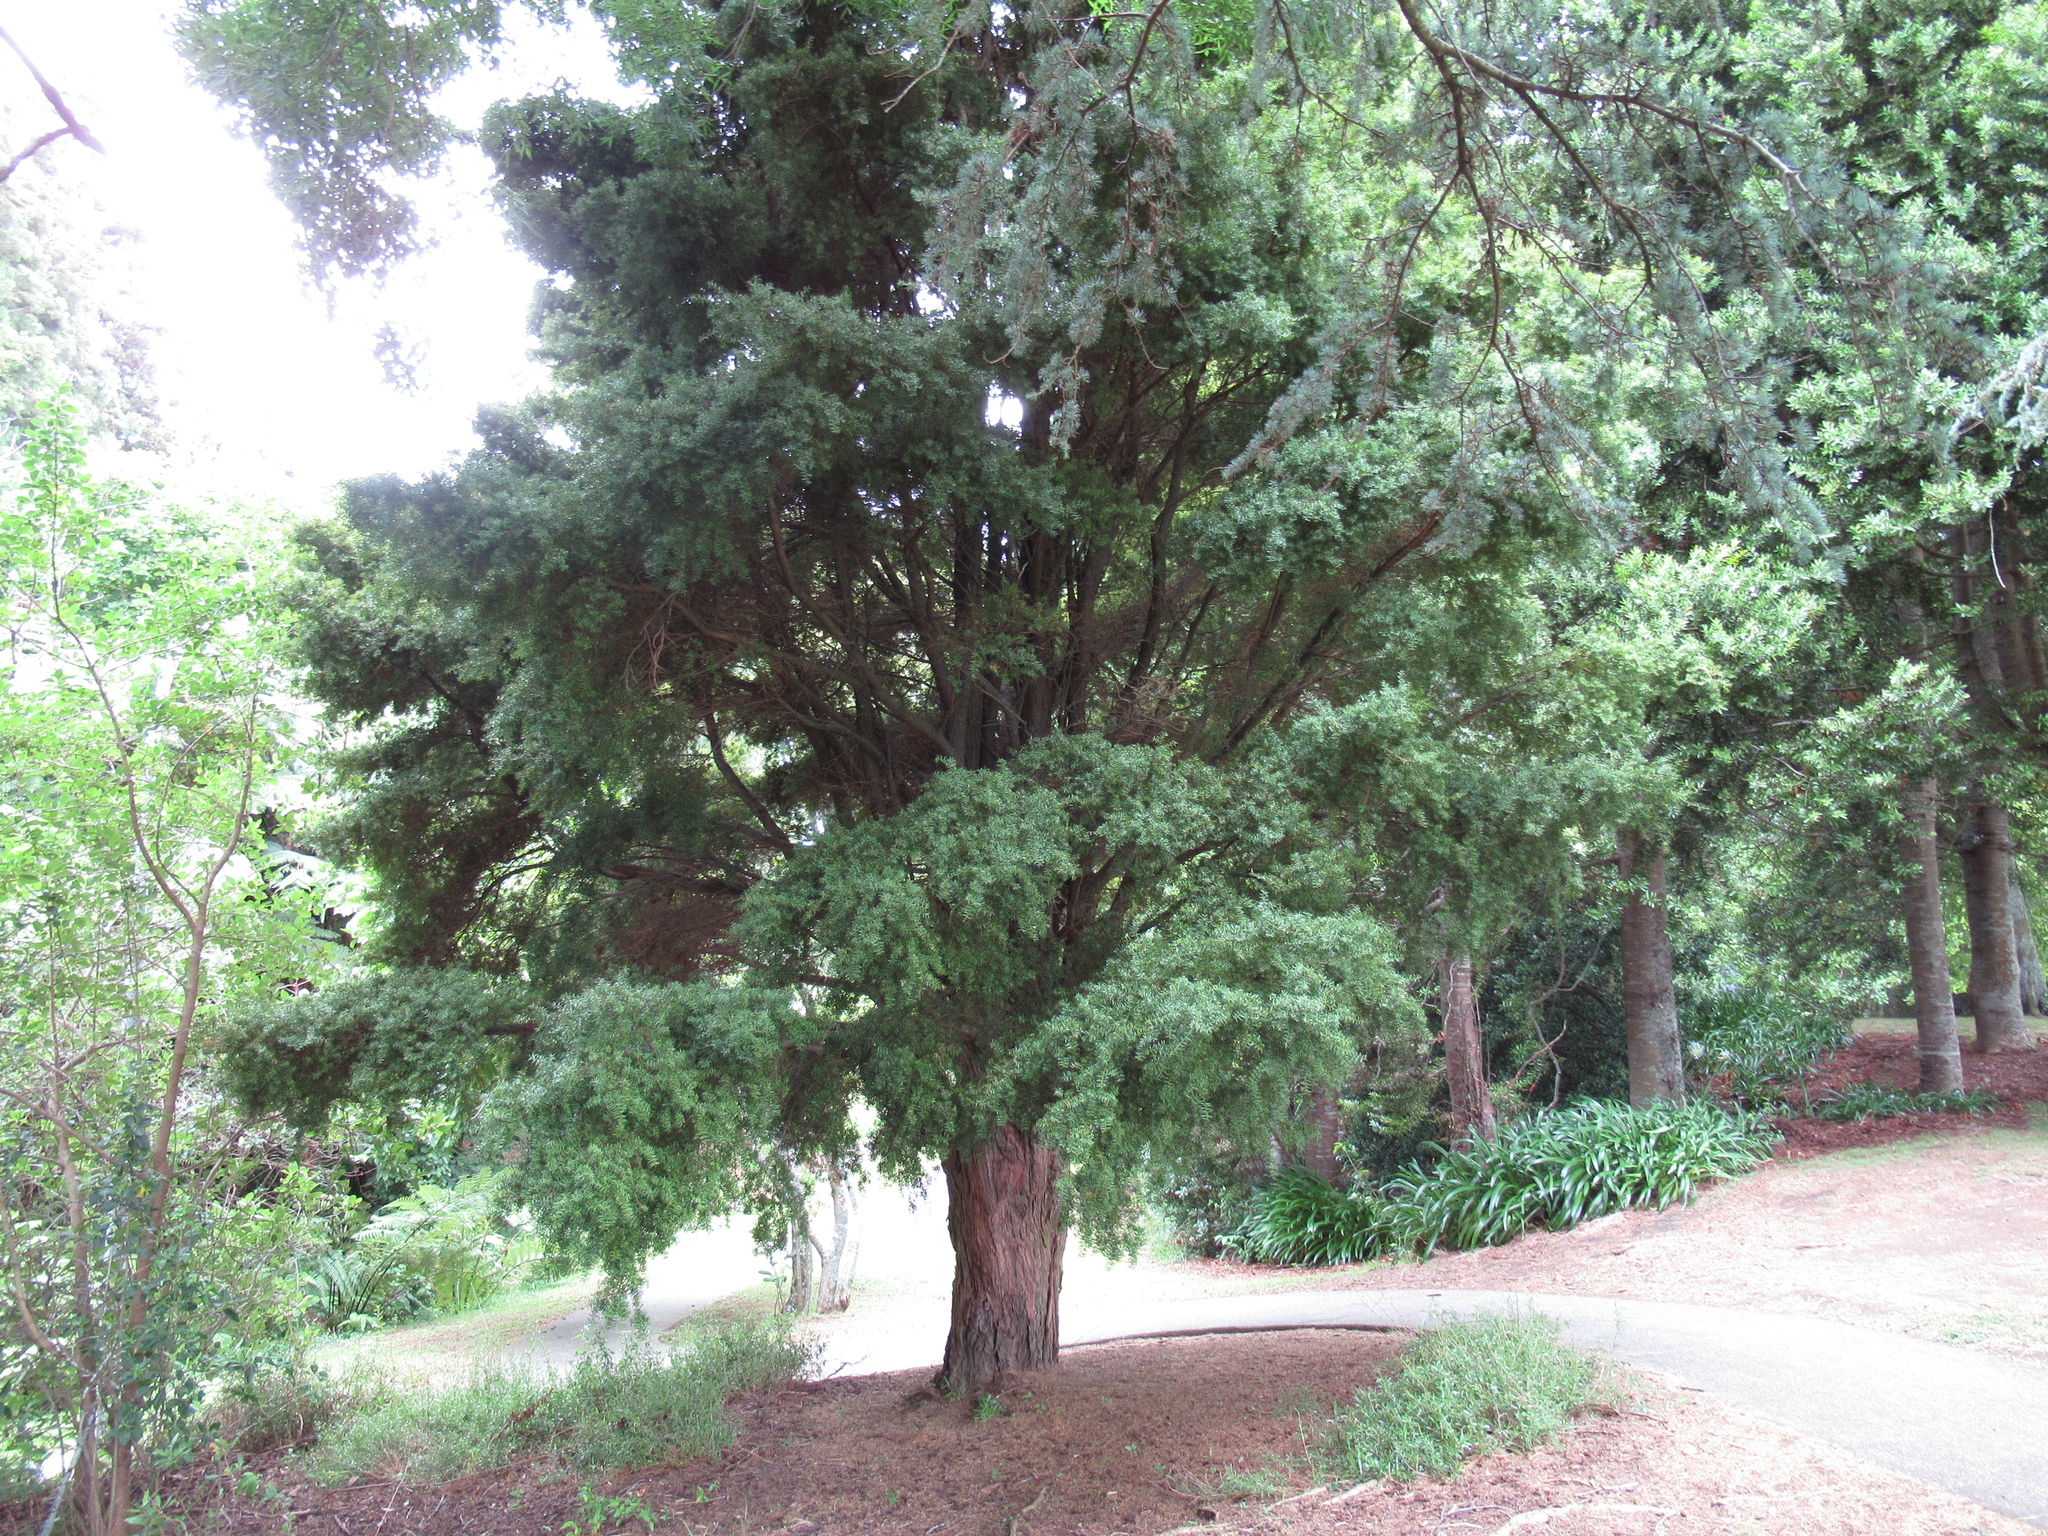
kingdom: Plantae
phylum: Tracheophyta
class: Pinopsida
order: Pinales
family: Podocarpaceae
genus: Podocarpus
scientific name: Podocarpus totara
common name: Totara
